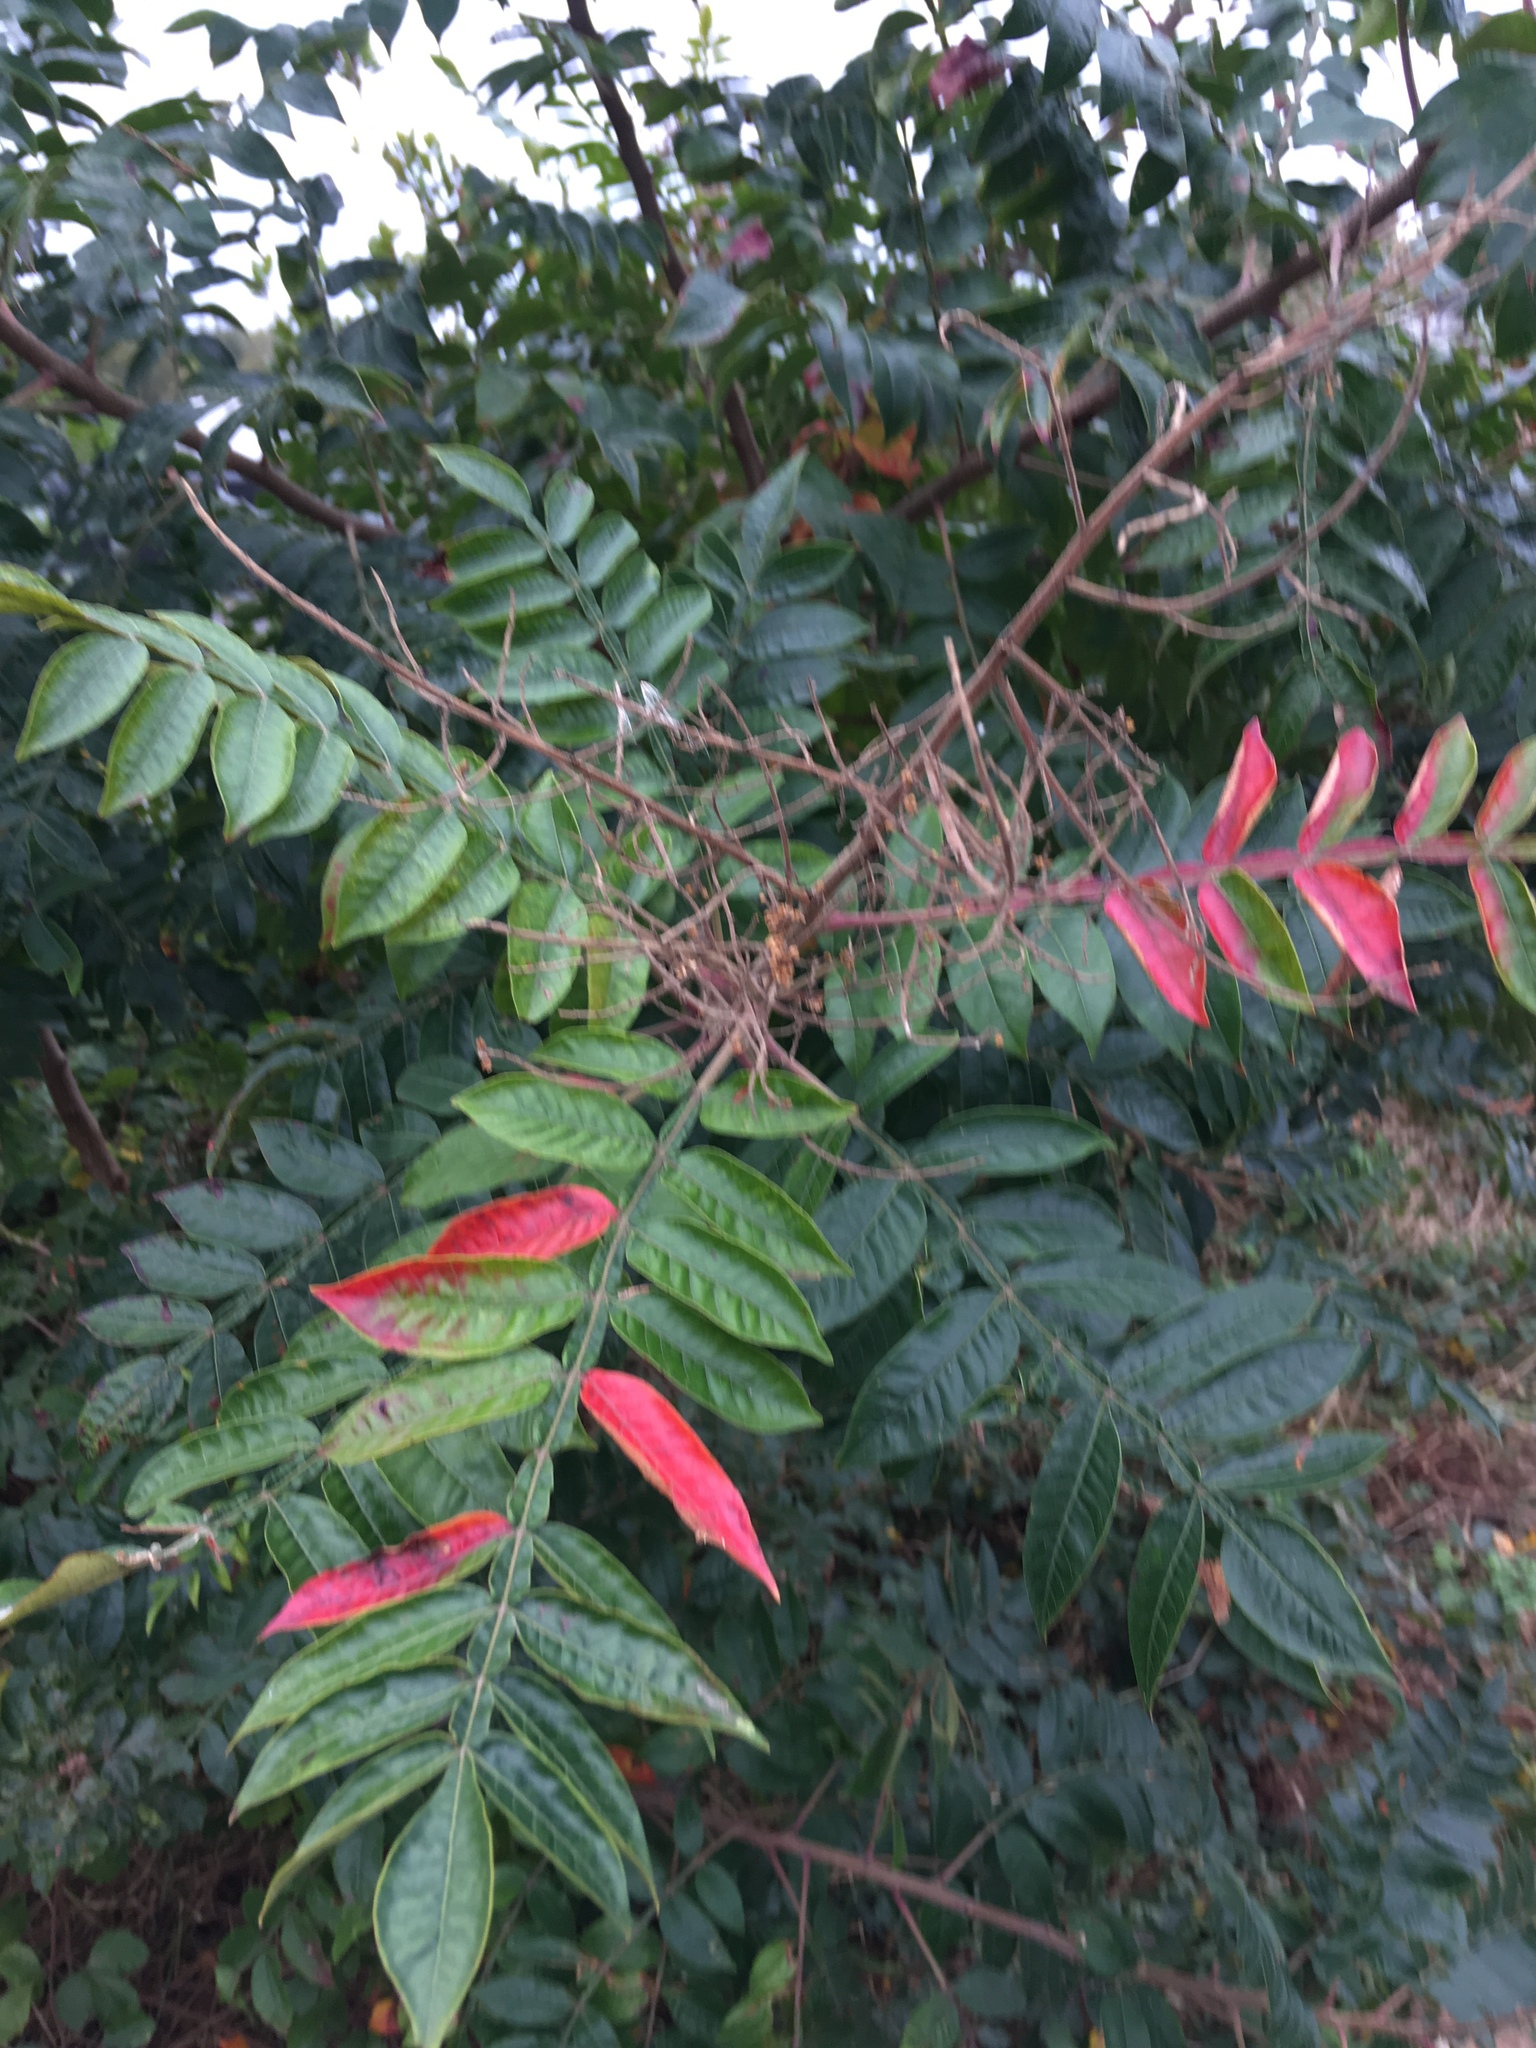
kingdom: Plantae
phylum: Tracheophyta
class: Magnoliopsida
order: Sapindales
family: Anacardiaceae
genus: Rhus
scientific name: Rhus copallina
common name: Shining sumac
